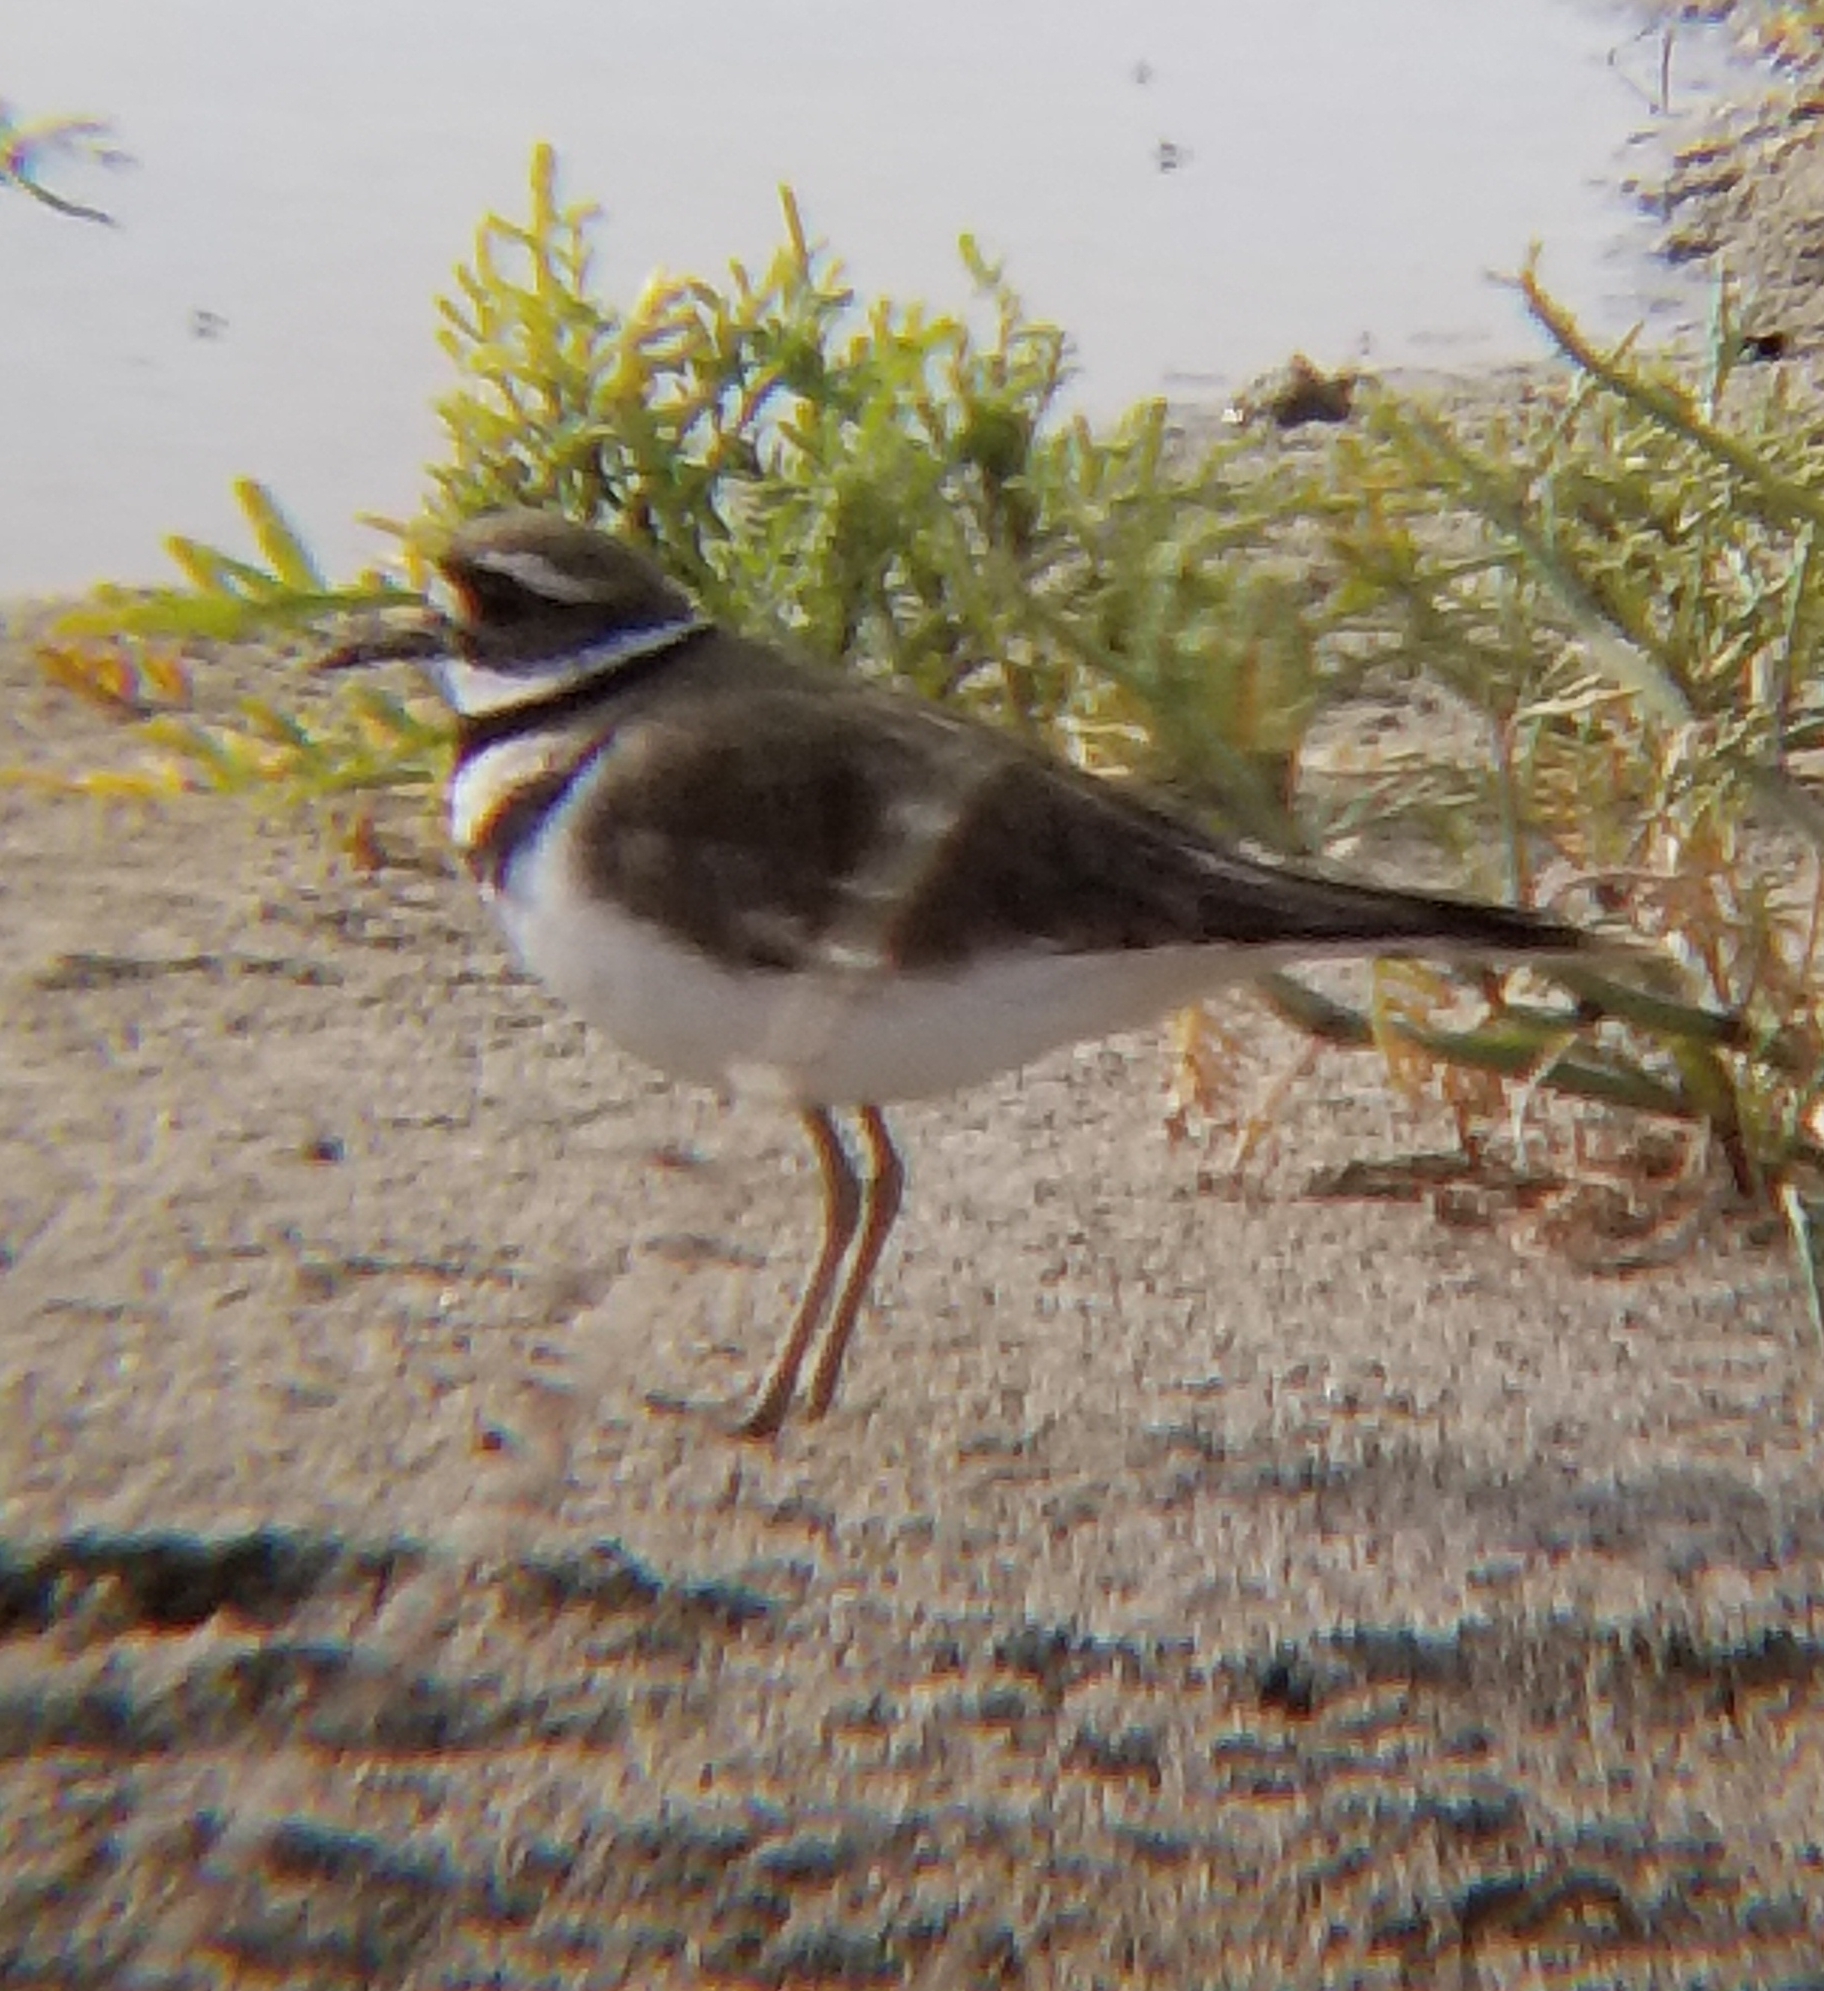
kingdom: Animalia
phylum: Chordata
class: Aves
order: Charadriiformes
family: Charadriidae
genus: Charadrius
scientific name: Charadrius vociferus
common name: Killdeer
